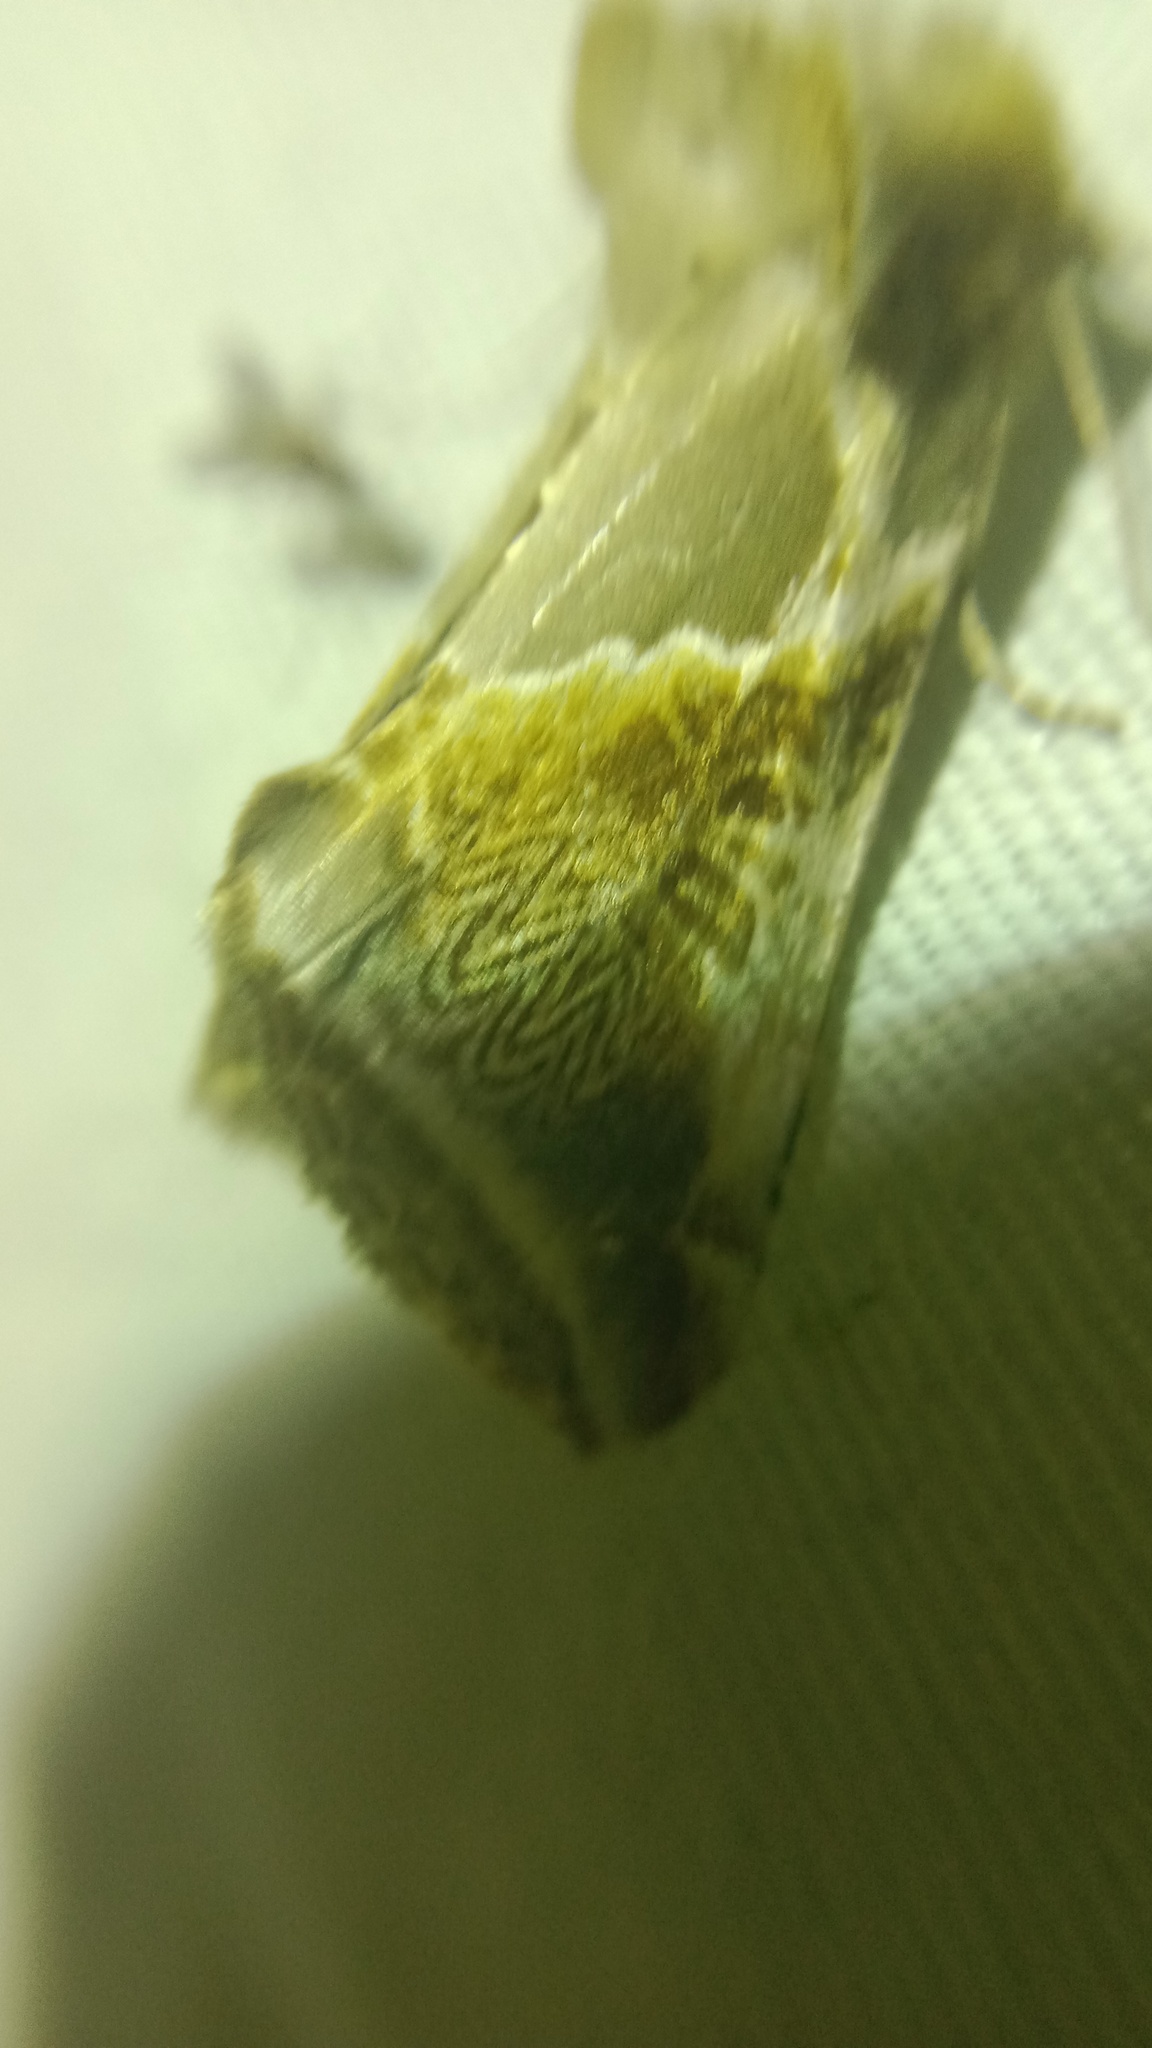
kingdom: Animalia
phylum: Arthropoda
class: Insecta
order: Lepidoptera
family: Drepanidae
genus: Habrosyne
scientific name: Habrosyne pyritoides
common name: Buff arches
